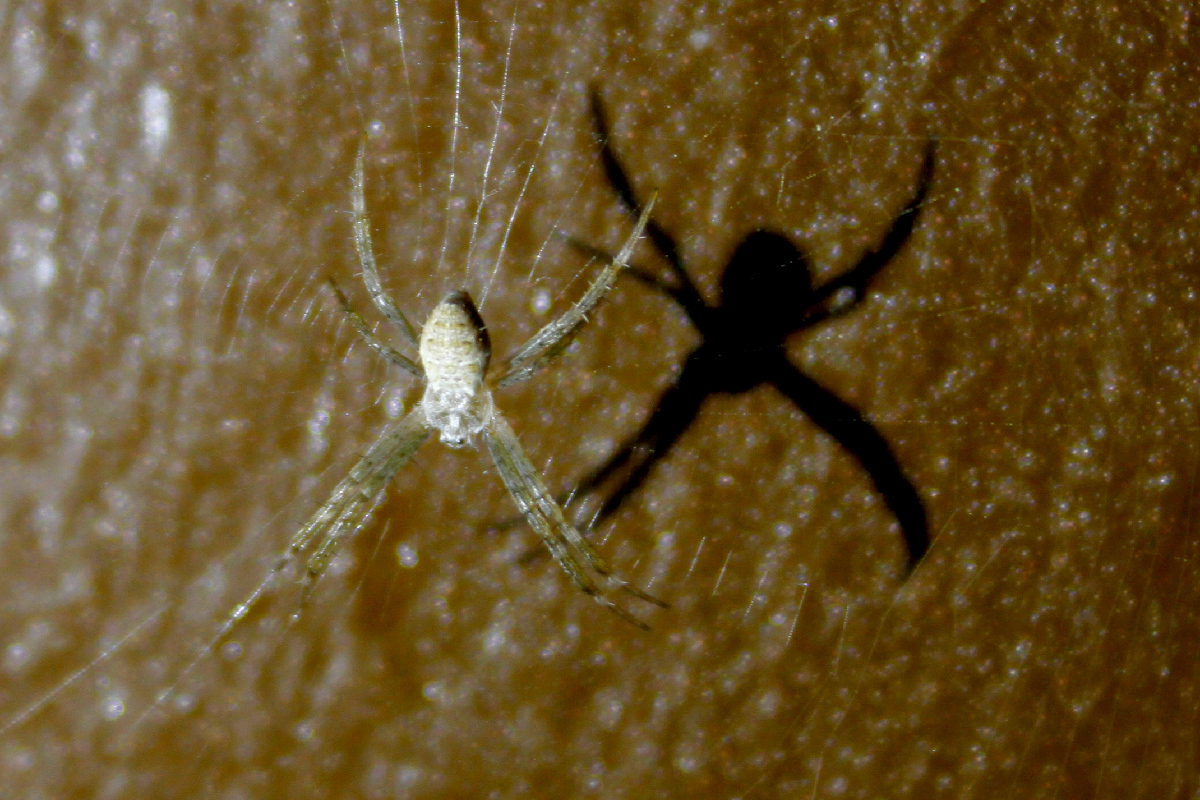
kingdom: Animalia
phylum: Arthropoda
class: Arachnida
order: Araneae
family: Araneidae
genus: Argiope
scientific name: Argiope appensa
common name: Garden spider
